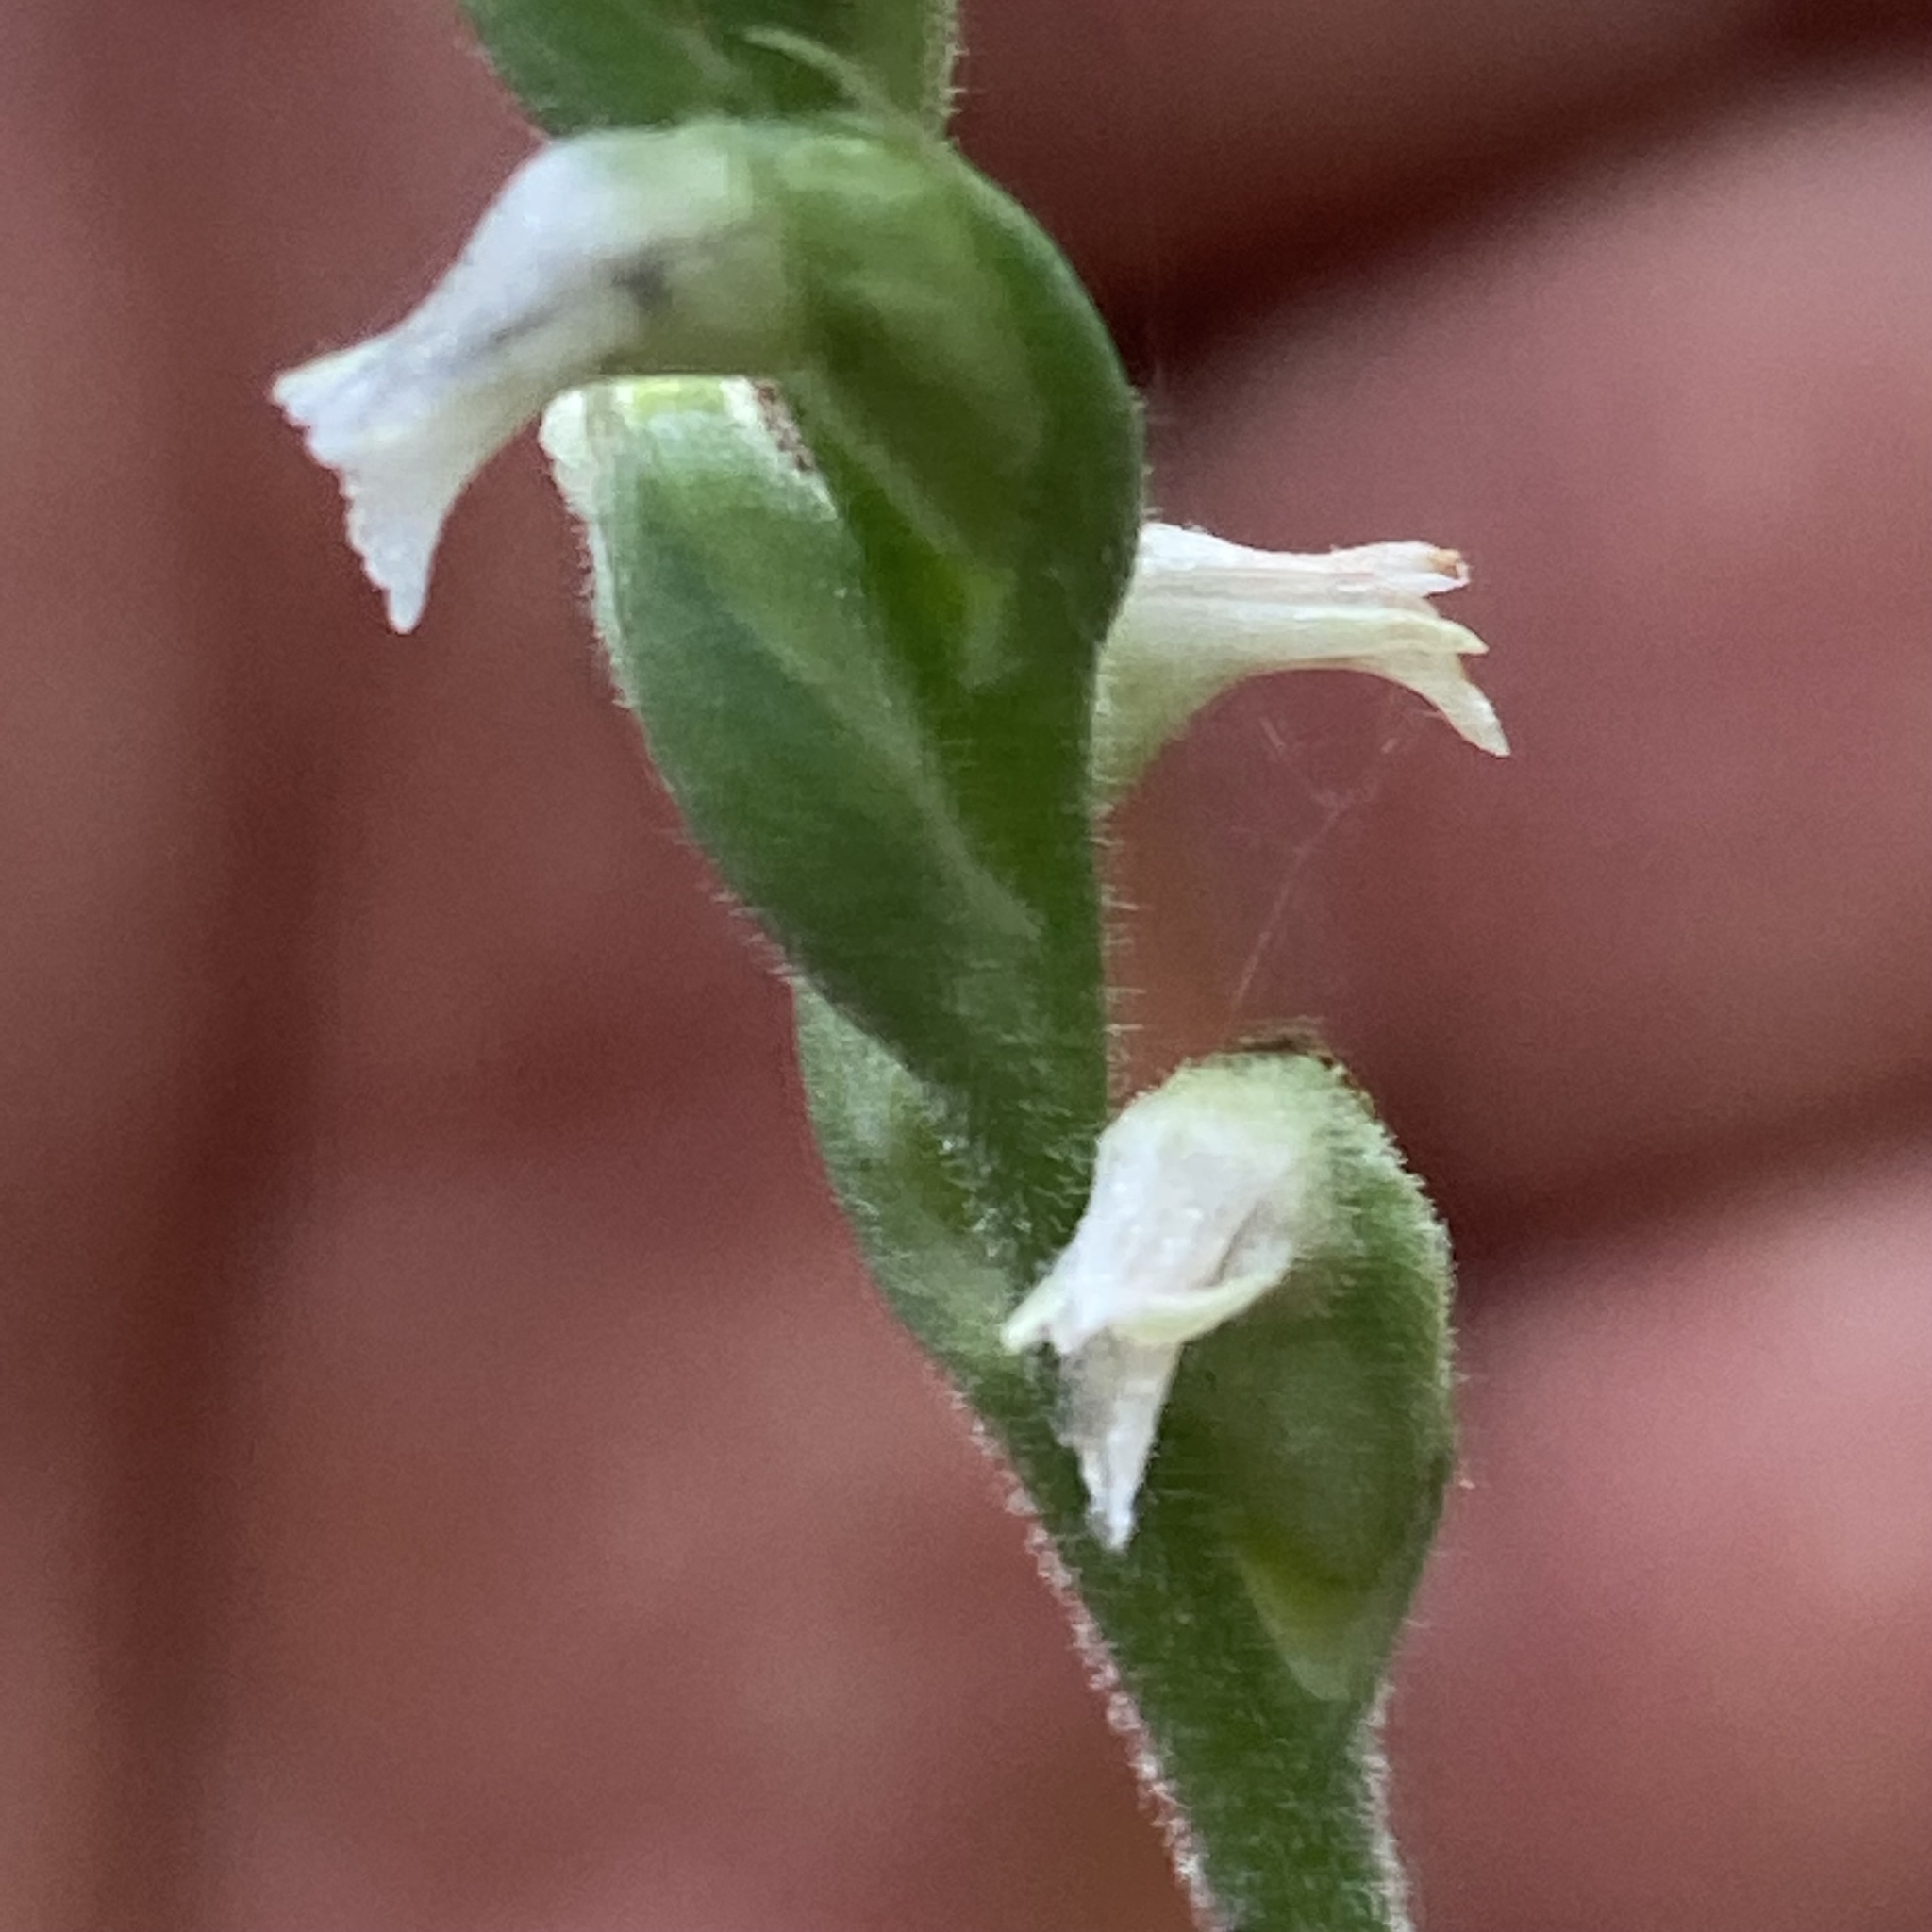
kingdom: Plantae
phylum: Tracheophyta
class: Liliopsida
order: Asparagales
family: Orchidaceae
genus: Spiranthes
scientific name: Spiranthes ovalis
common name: October ladies'-tresses
